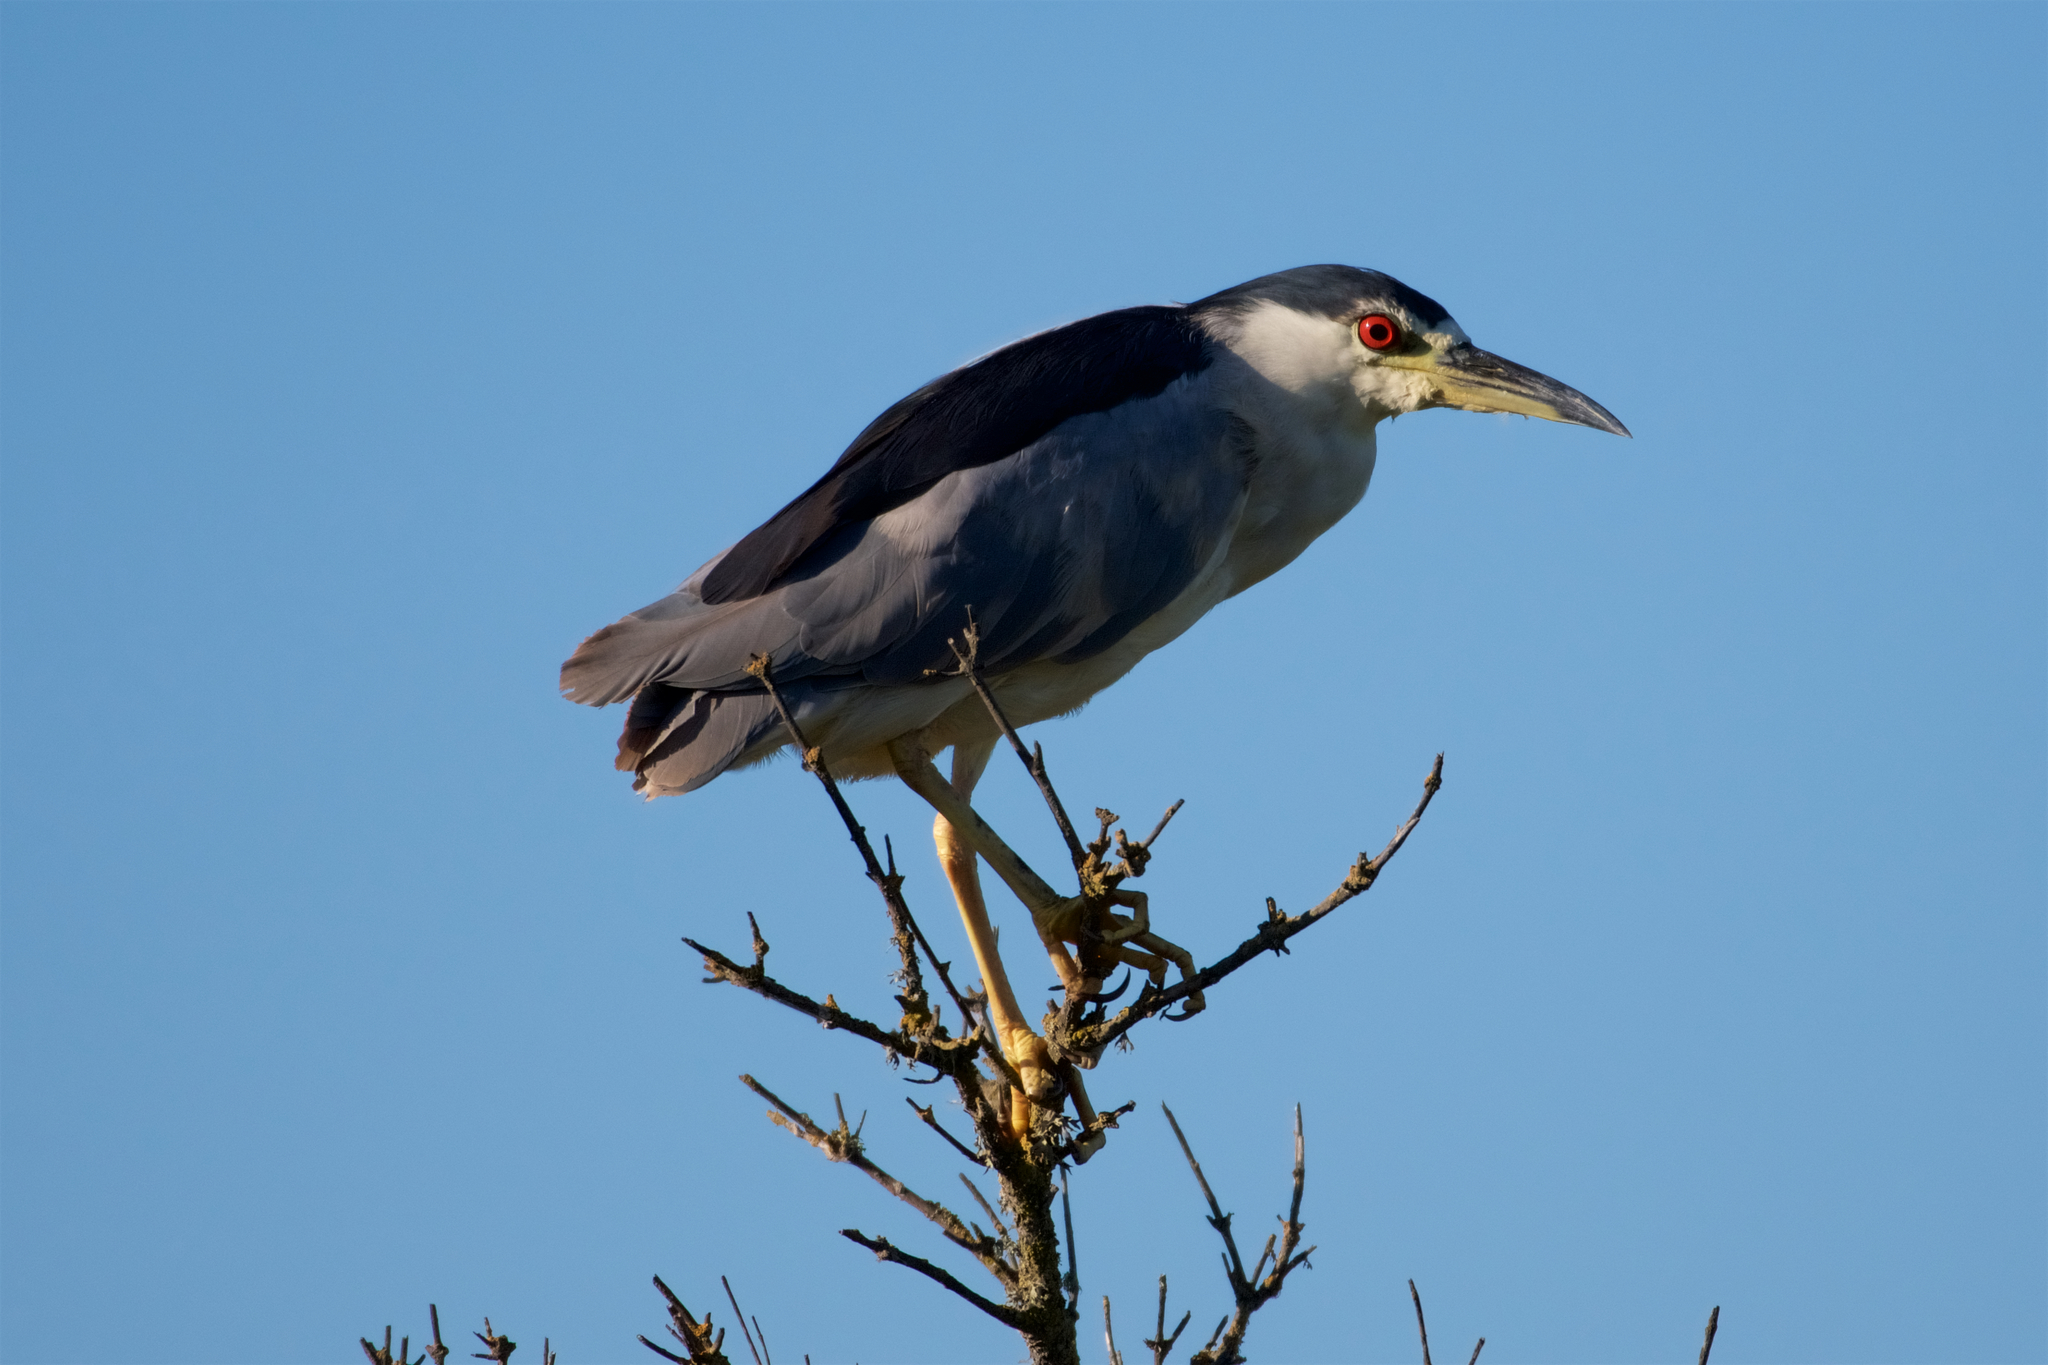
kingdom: Animalia
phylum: Chordata
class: Aves
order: Pelecaniformes
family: Ardeidae
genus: Nycticorax
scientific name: Nycticorax nycticorax
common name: Black-crowned night heron
